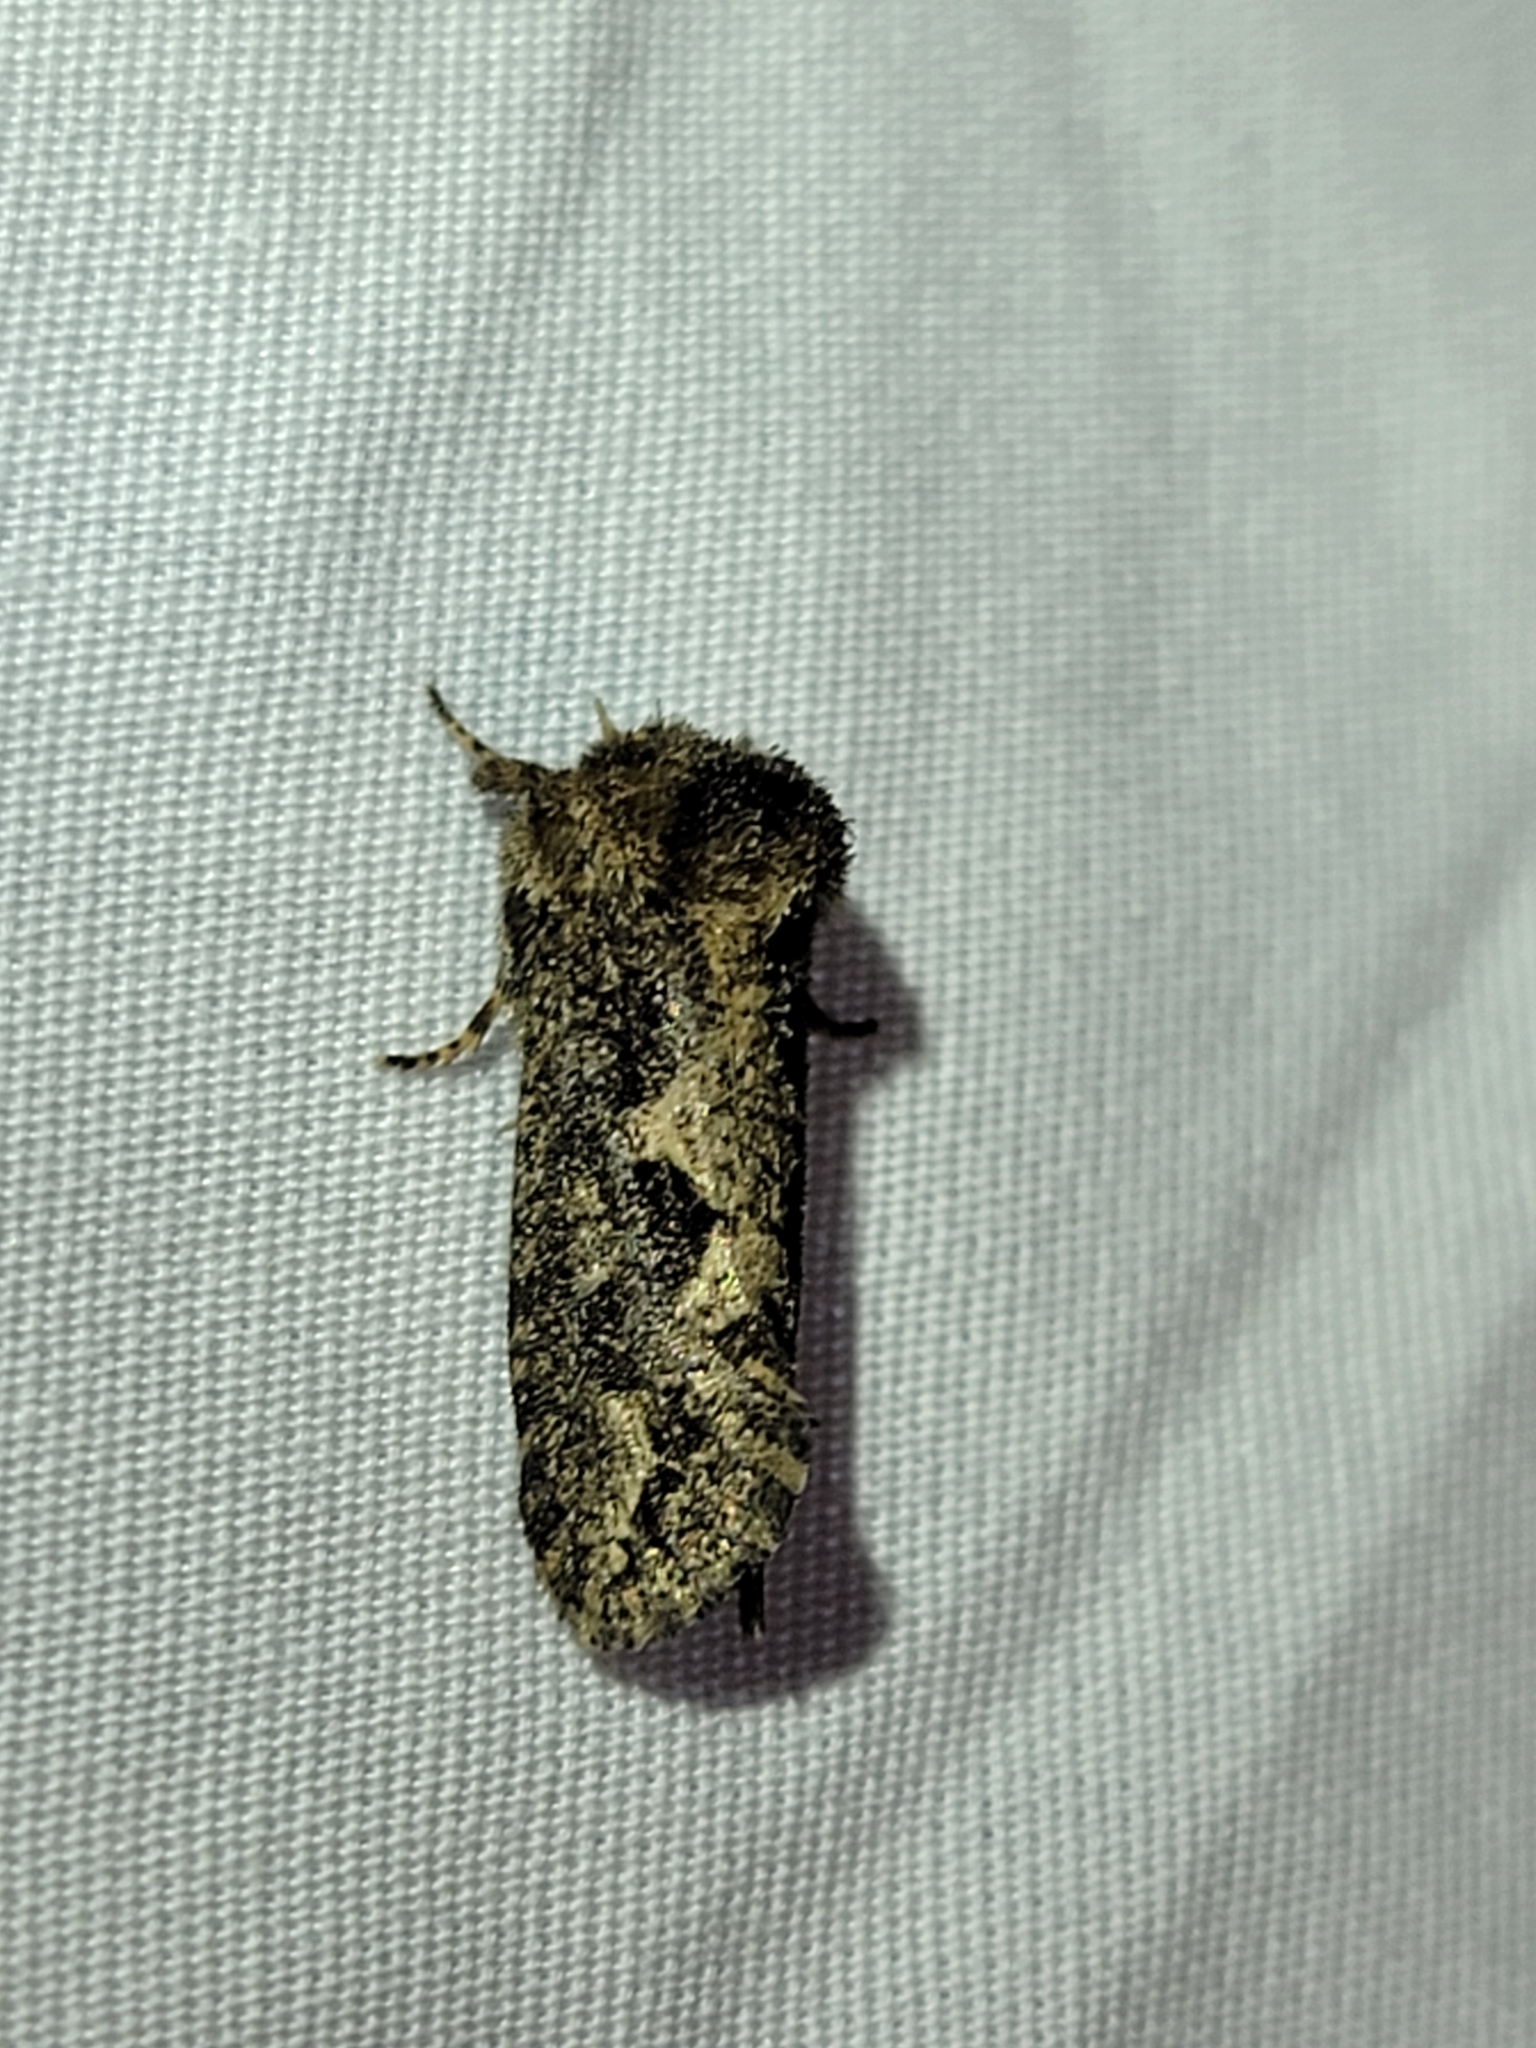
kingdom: Animalia
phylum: Arthropoda
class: Insecta
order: Lepidoptera
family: Tineidae
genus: Acrolophus
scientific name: Acrolophus arcanella
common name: Arcane grass tubeworm moth
